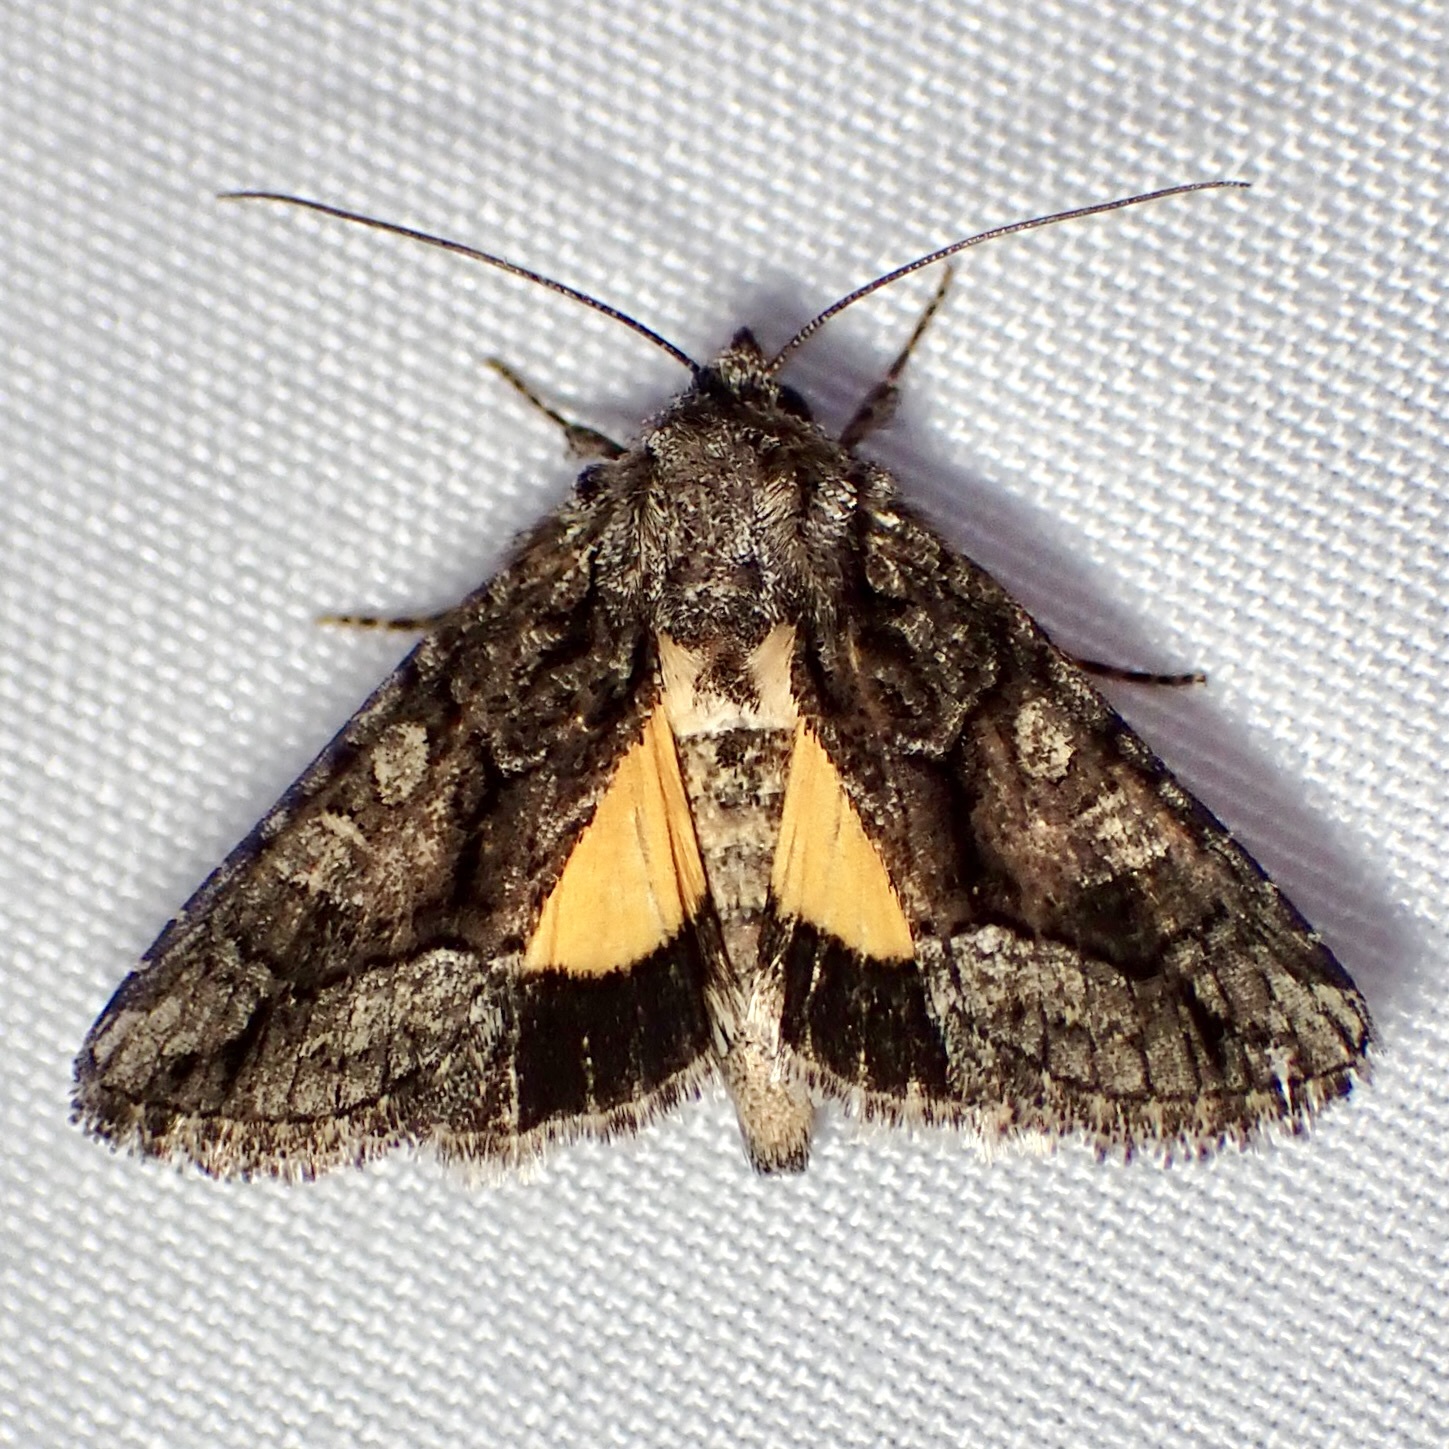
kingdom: Animalia
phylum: Arthropoda
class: Insecta
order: Lepidoptera
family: Noctuidae
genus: Pseudanarta
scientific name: Pseudanarta singula
